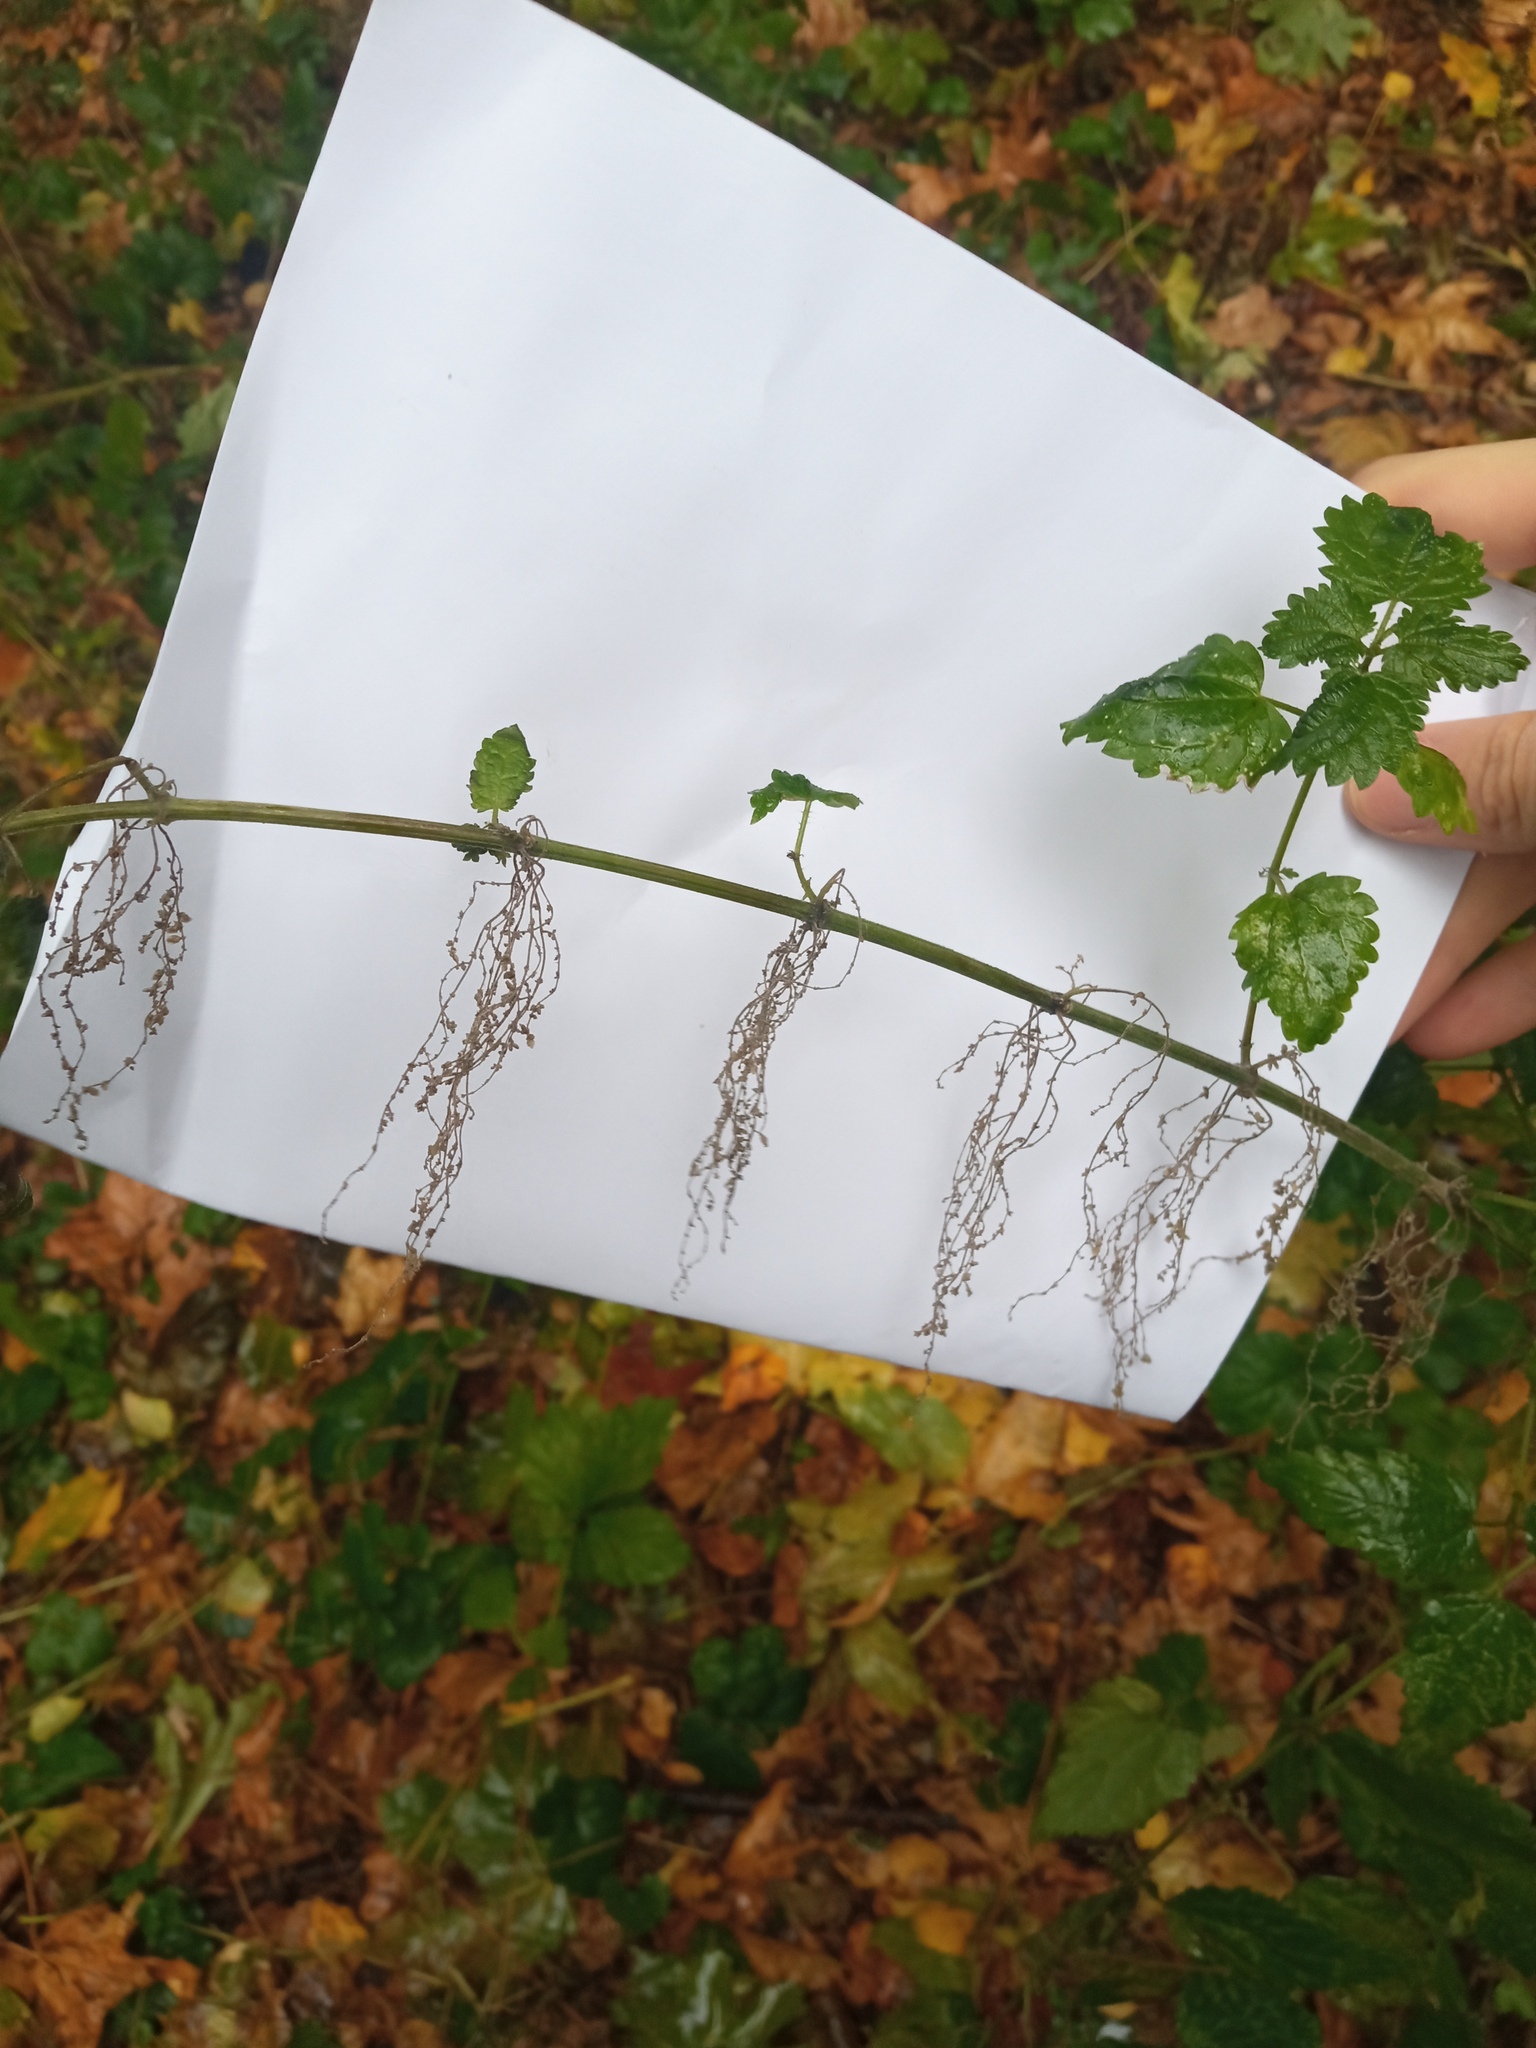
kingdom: Plantae
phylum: Tracheophyta
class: Magnoliopsida
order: Rosales
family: Urticaceae
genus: Urtica
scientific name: Urtica dioica
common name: Common nettle
